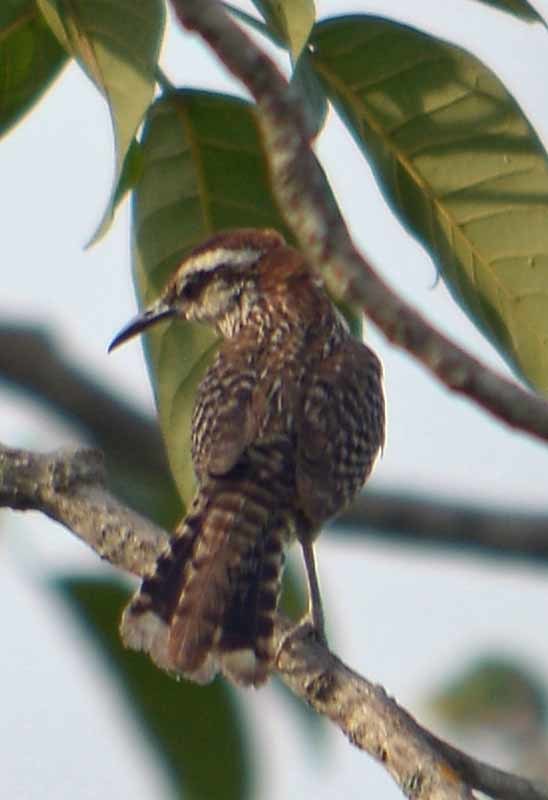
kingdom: Animalia
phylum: Chordata
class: Aves
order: Passeriformes
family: Troglodytidae
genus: Campylorhynchus
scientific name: Campylorhynchus rufinucha
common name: Rufous-naped wren
